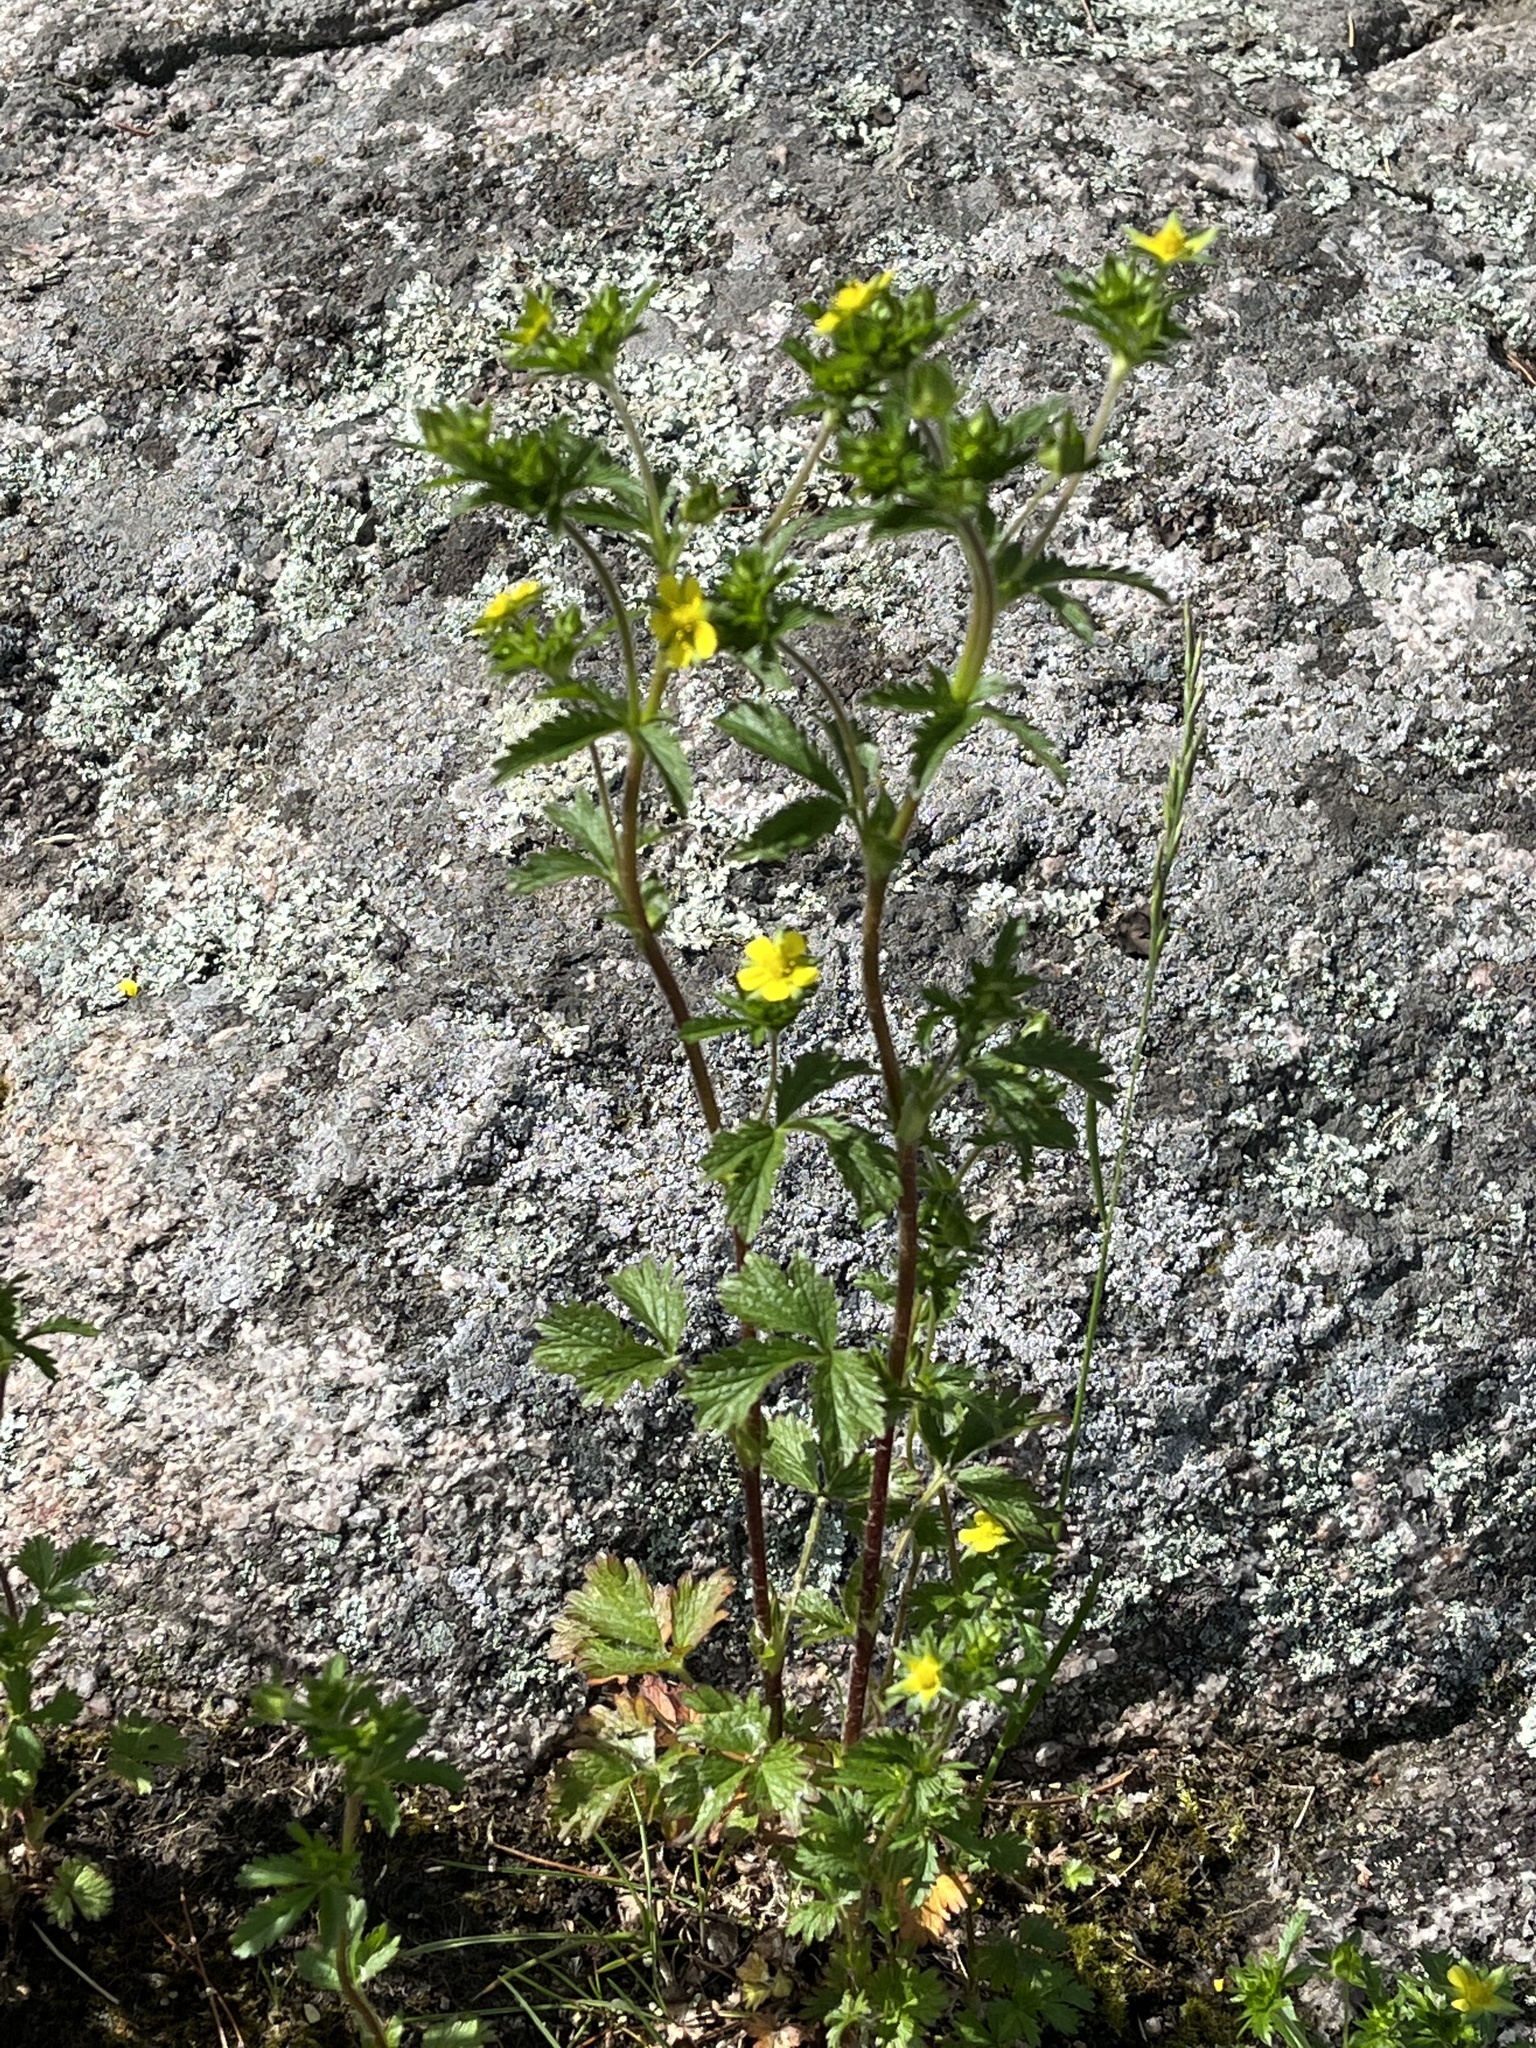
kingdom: Plantae
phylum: Tracheophyta
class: Magnoliopsida
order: Rosales
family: Rosaceae
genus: Potentilla
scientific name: Potentilla norvegica
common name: Ternate-leaved cinquefoil
